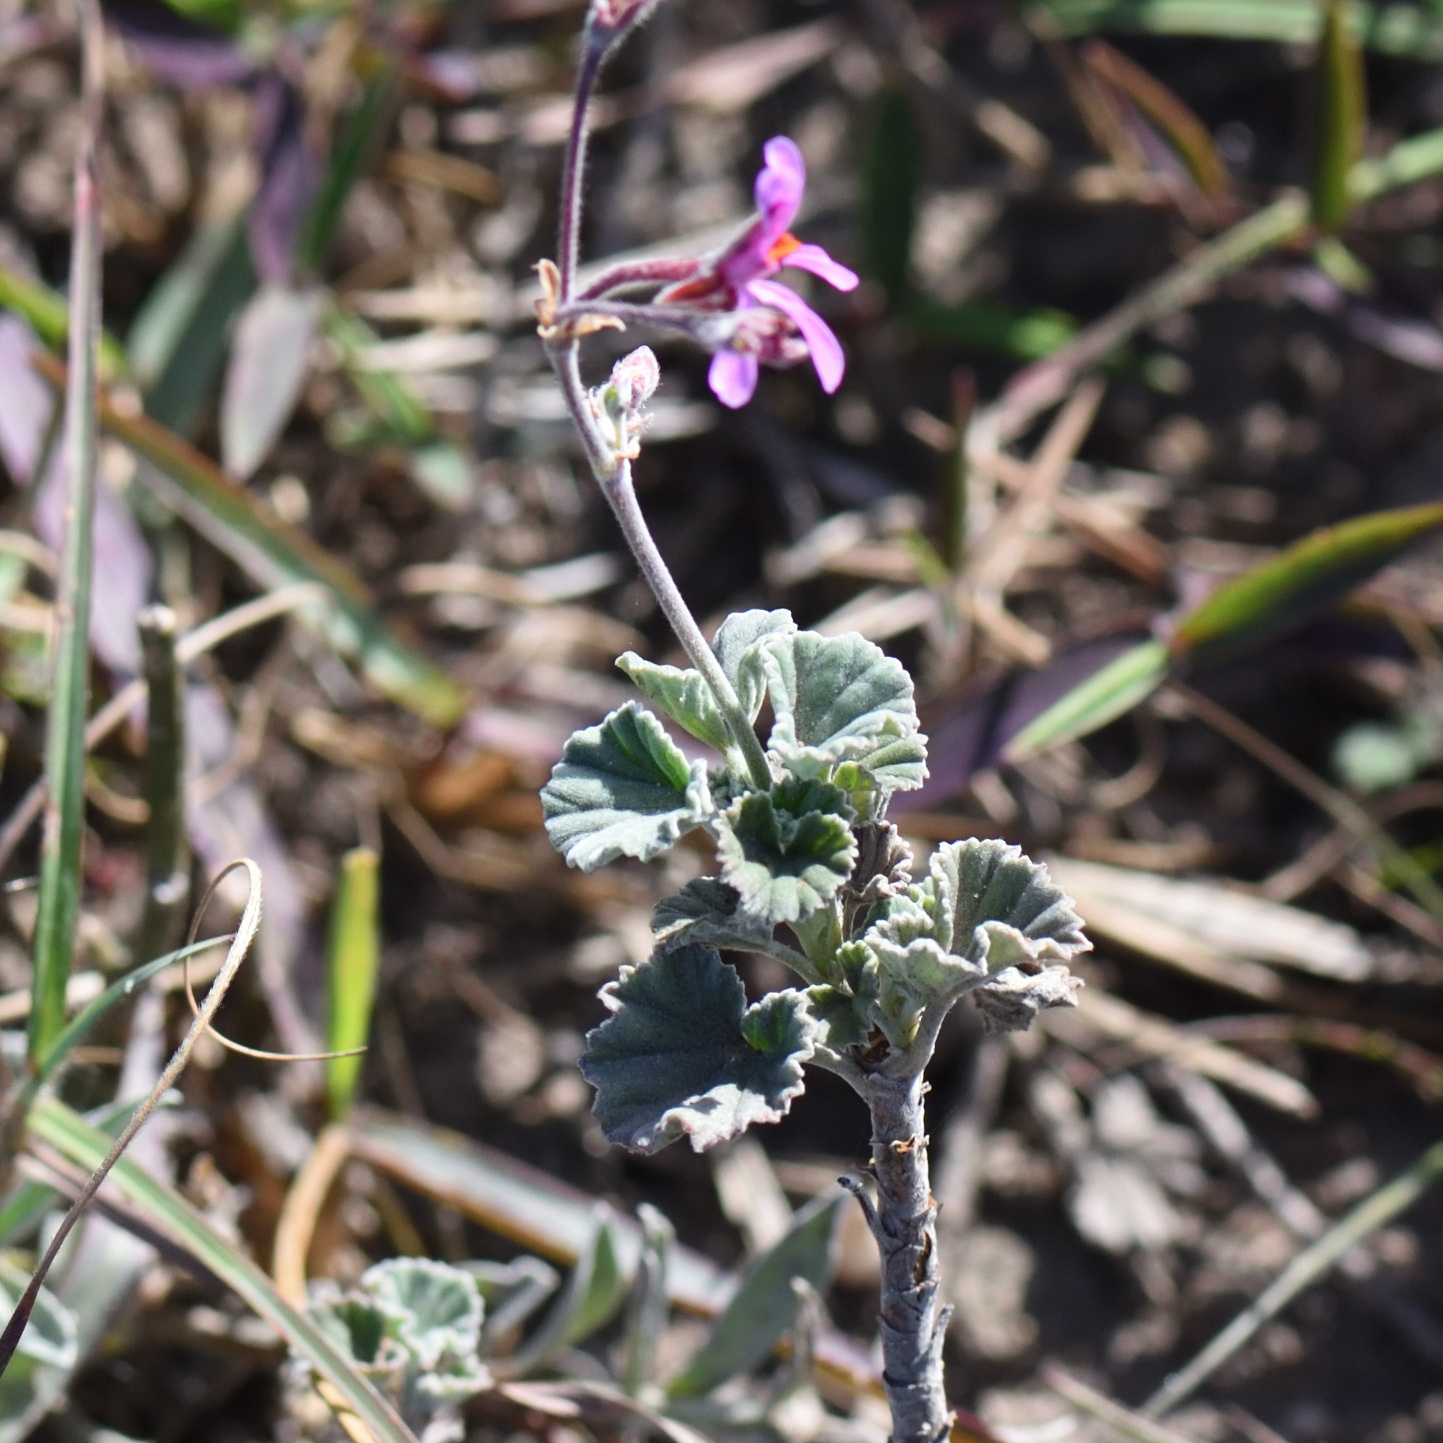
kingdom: Plantae
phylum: Tracheophyta
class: Magnoliopsida
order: Geraniales
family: Geraniaceae
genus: Pelargonium
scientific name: Pelargonium reniforme
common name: Kidney-leaf pelargonium
